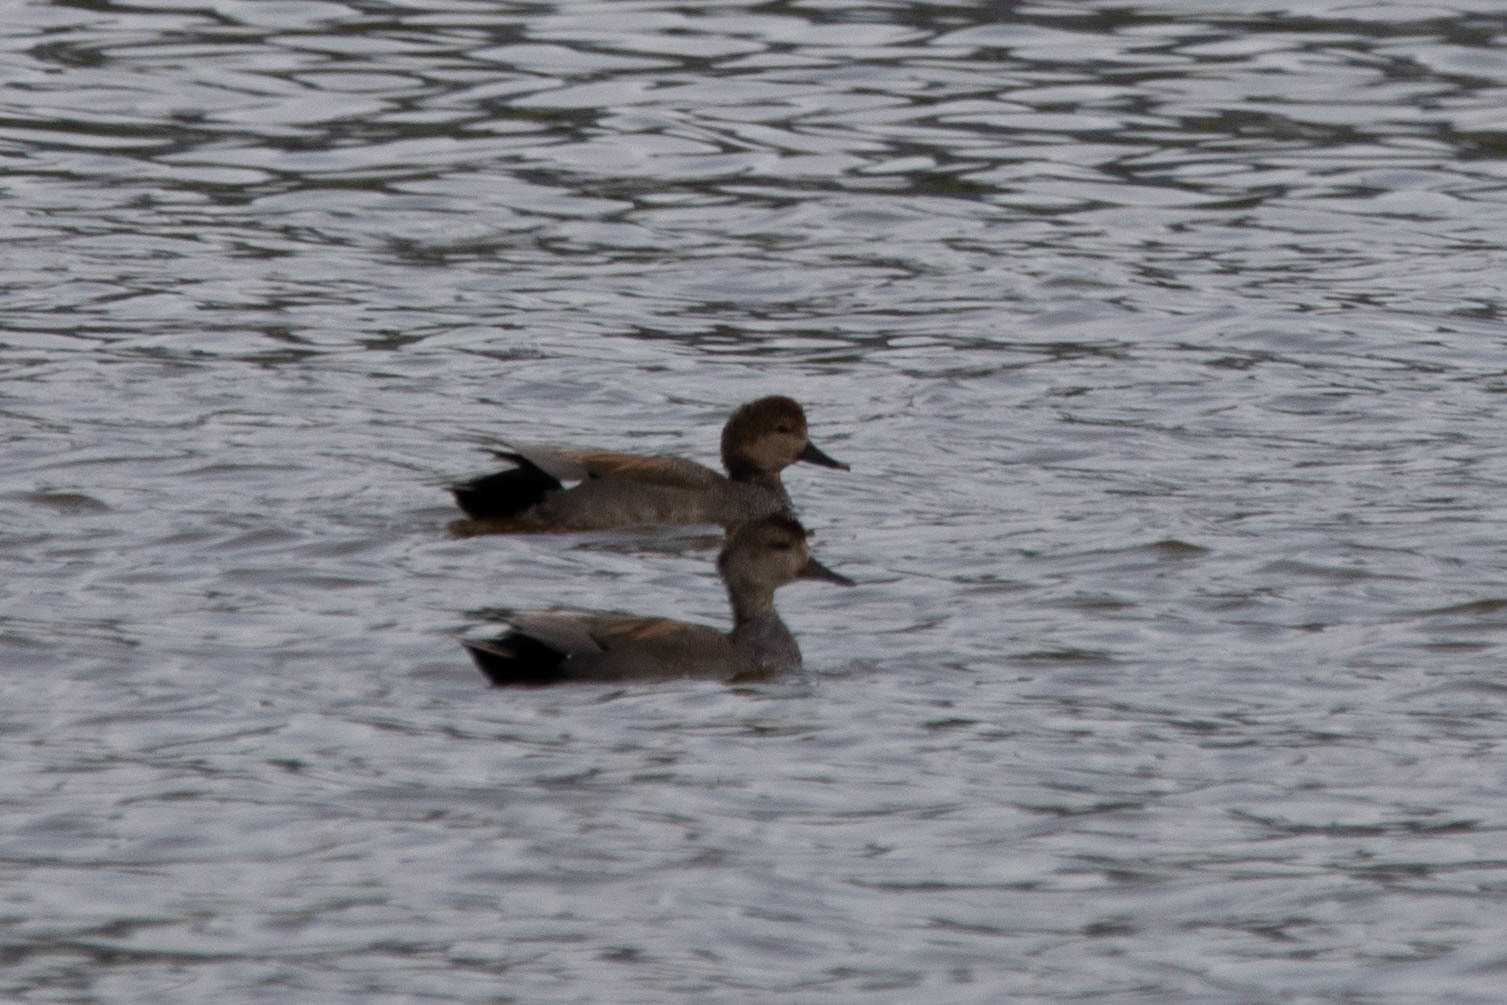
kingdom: Animalia
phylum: Chordata
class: Aves
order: Anseriformes
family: Anatidae
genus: Mareca
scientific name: Mareca strepera
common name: Gadwall
